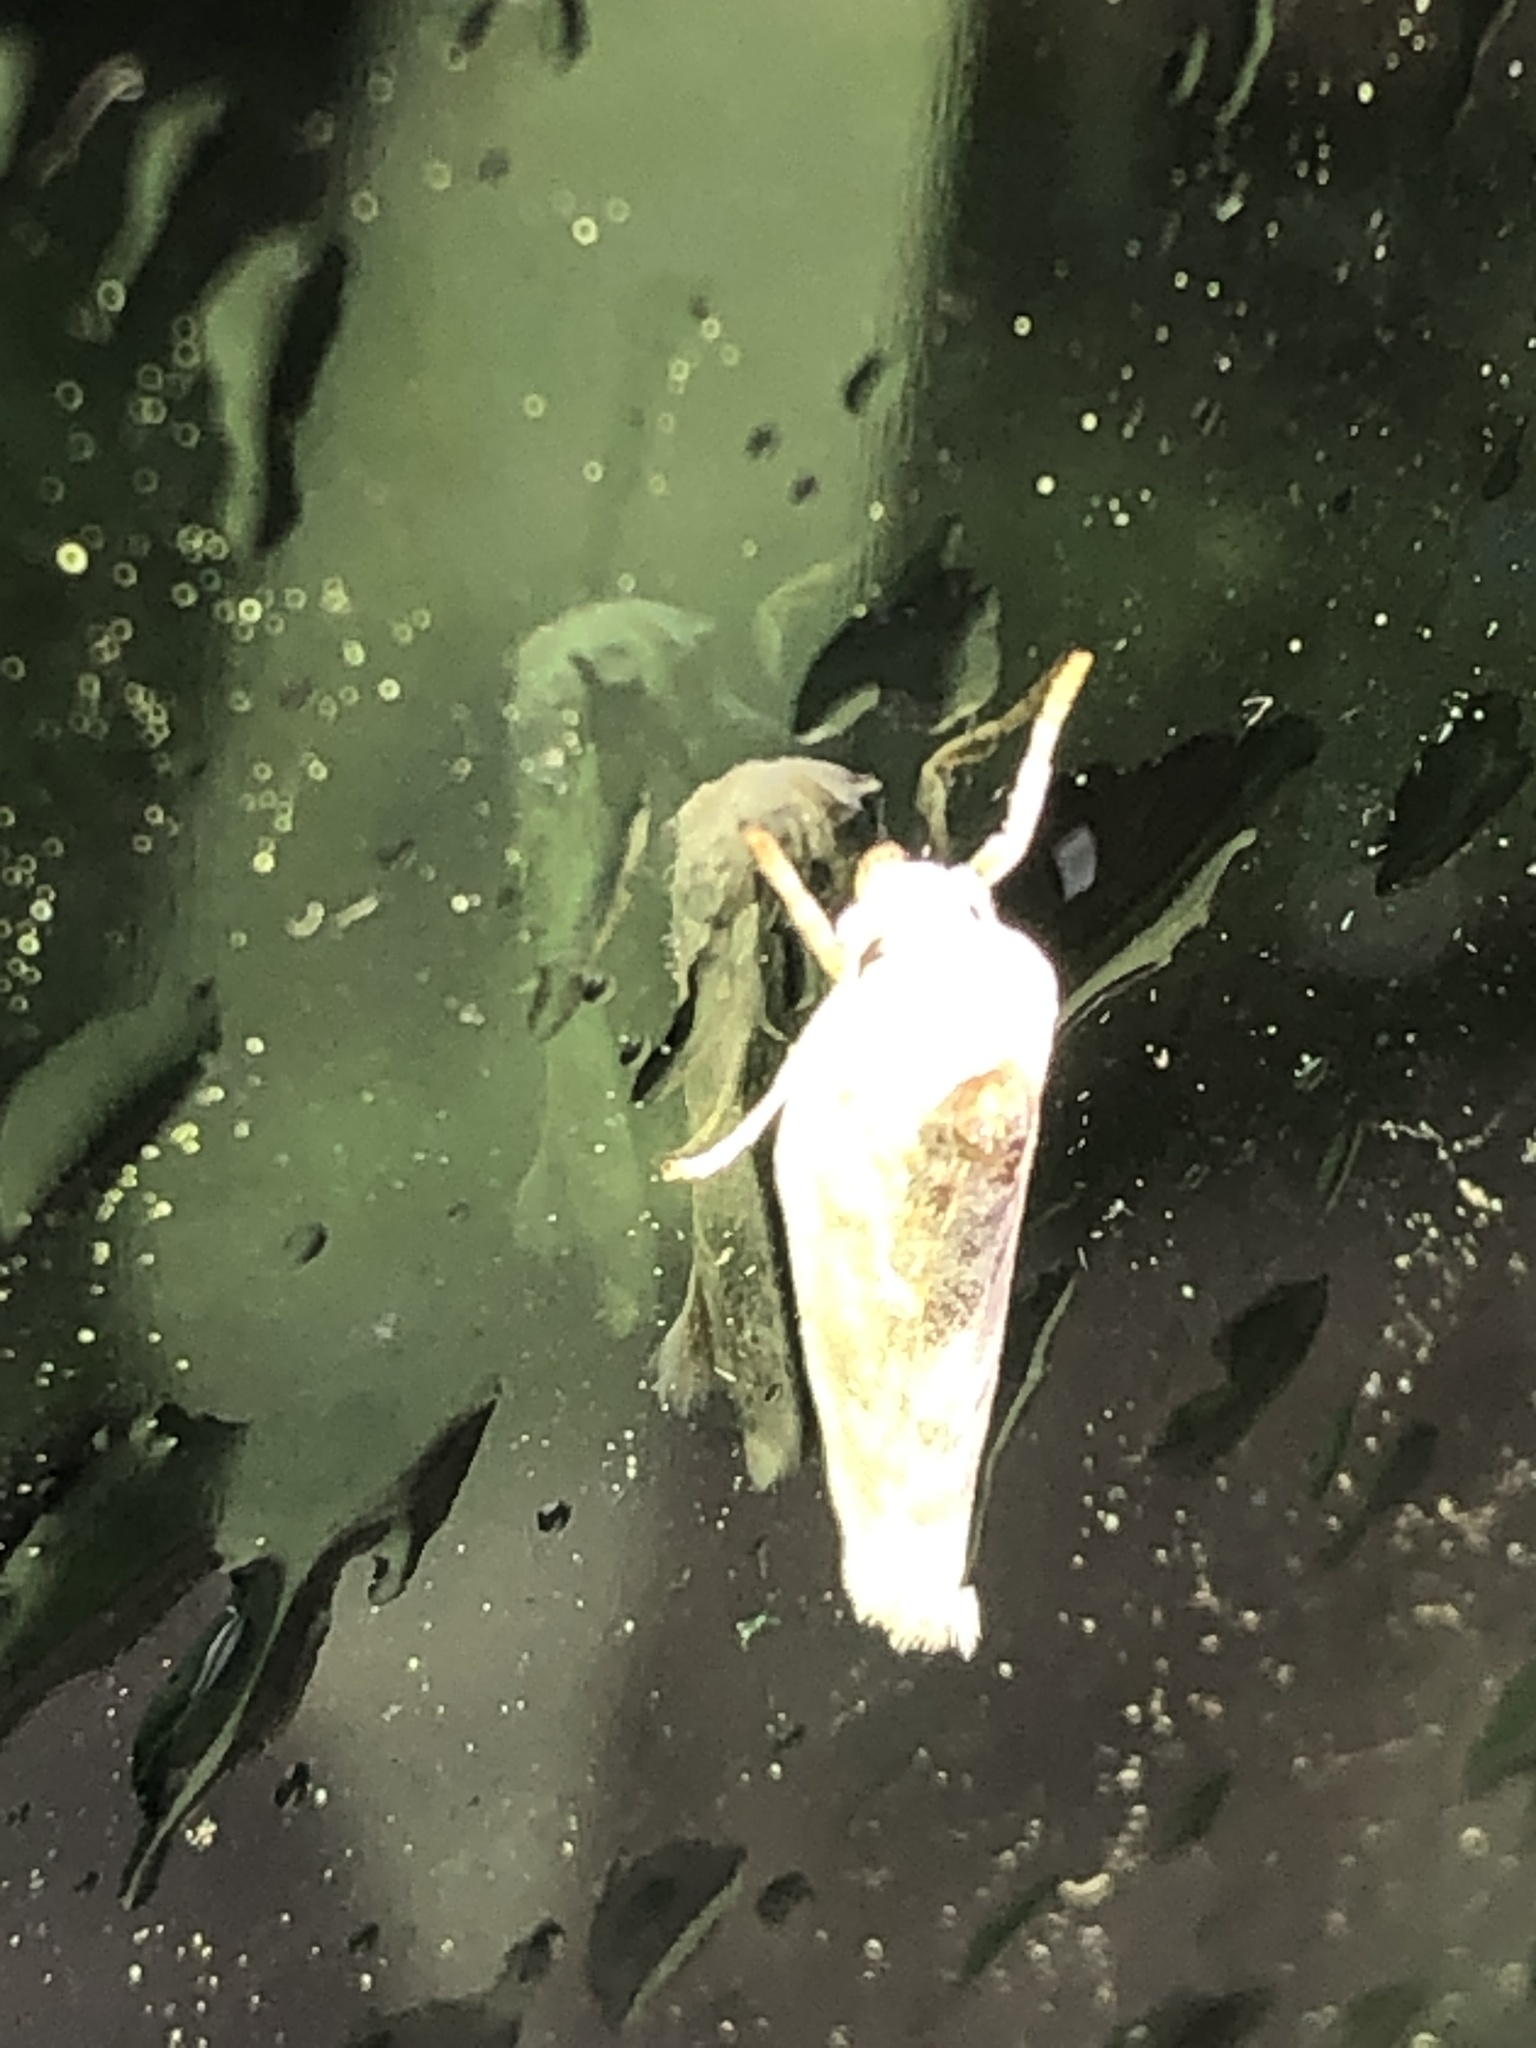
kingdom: Animalia
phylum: Arthropoda
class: Insecta
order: Lepidoptera
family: Depressariidae
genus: Antaeotricha
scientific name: Antaeotricha leucillana
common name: Pale gray bird-dropping moth
